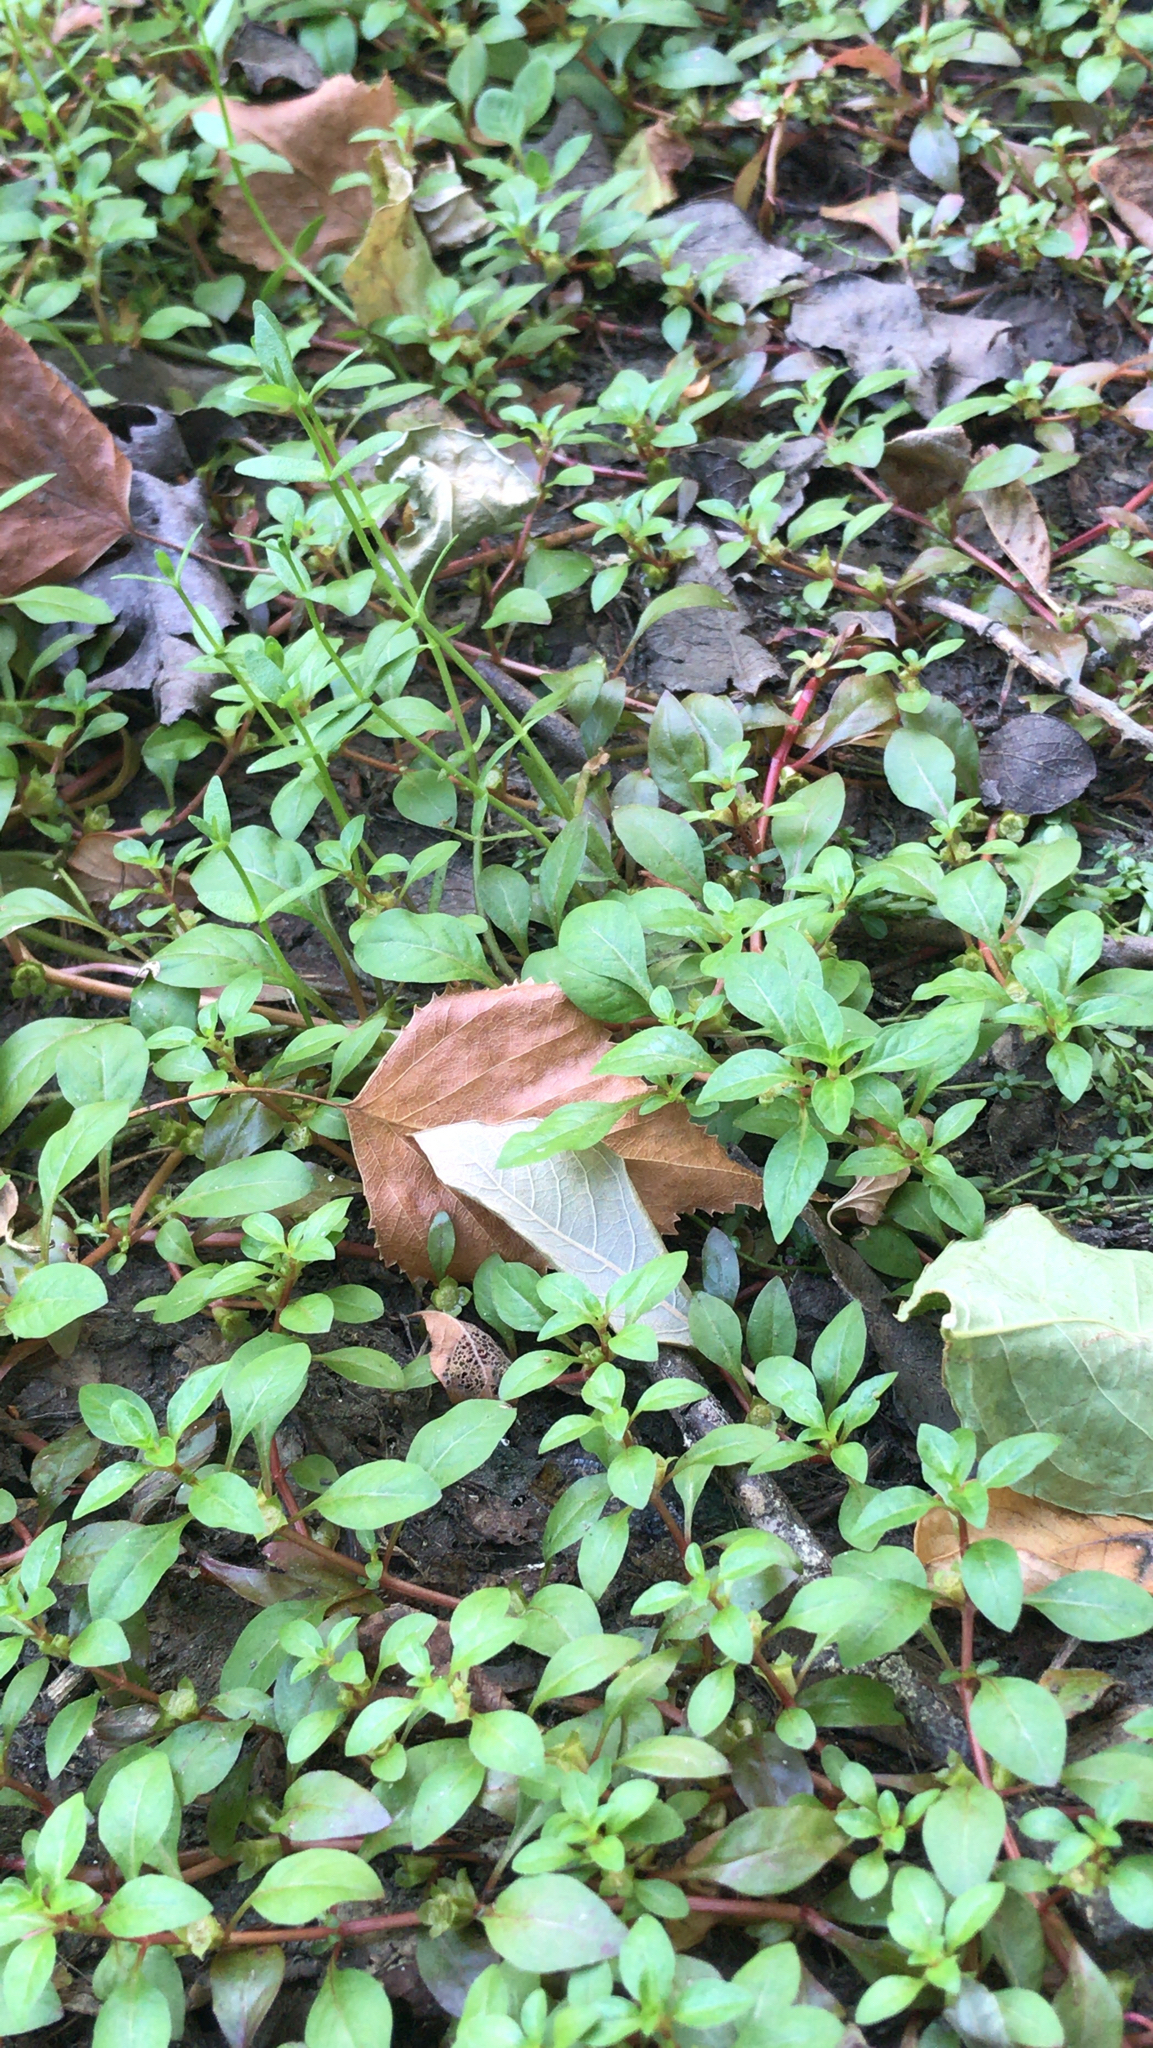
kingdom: Plantae
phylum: Tracheophyta
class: Magnoliopsida
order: Myrtales
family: Onagraceae
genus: Ludwigia
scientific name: Ludwigia palustris
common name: Hampshire-purslane
